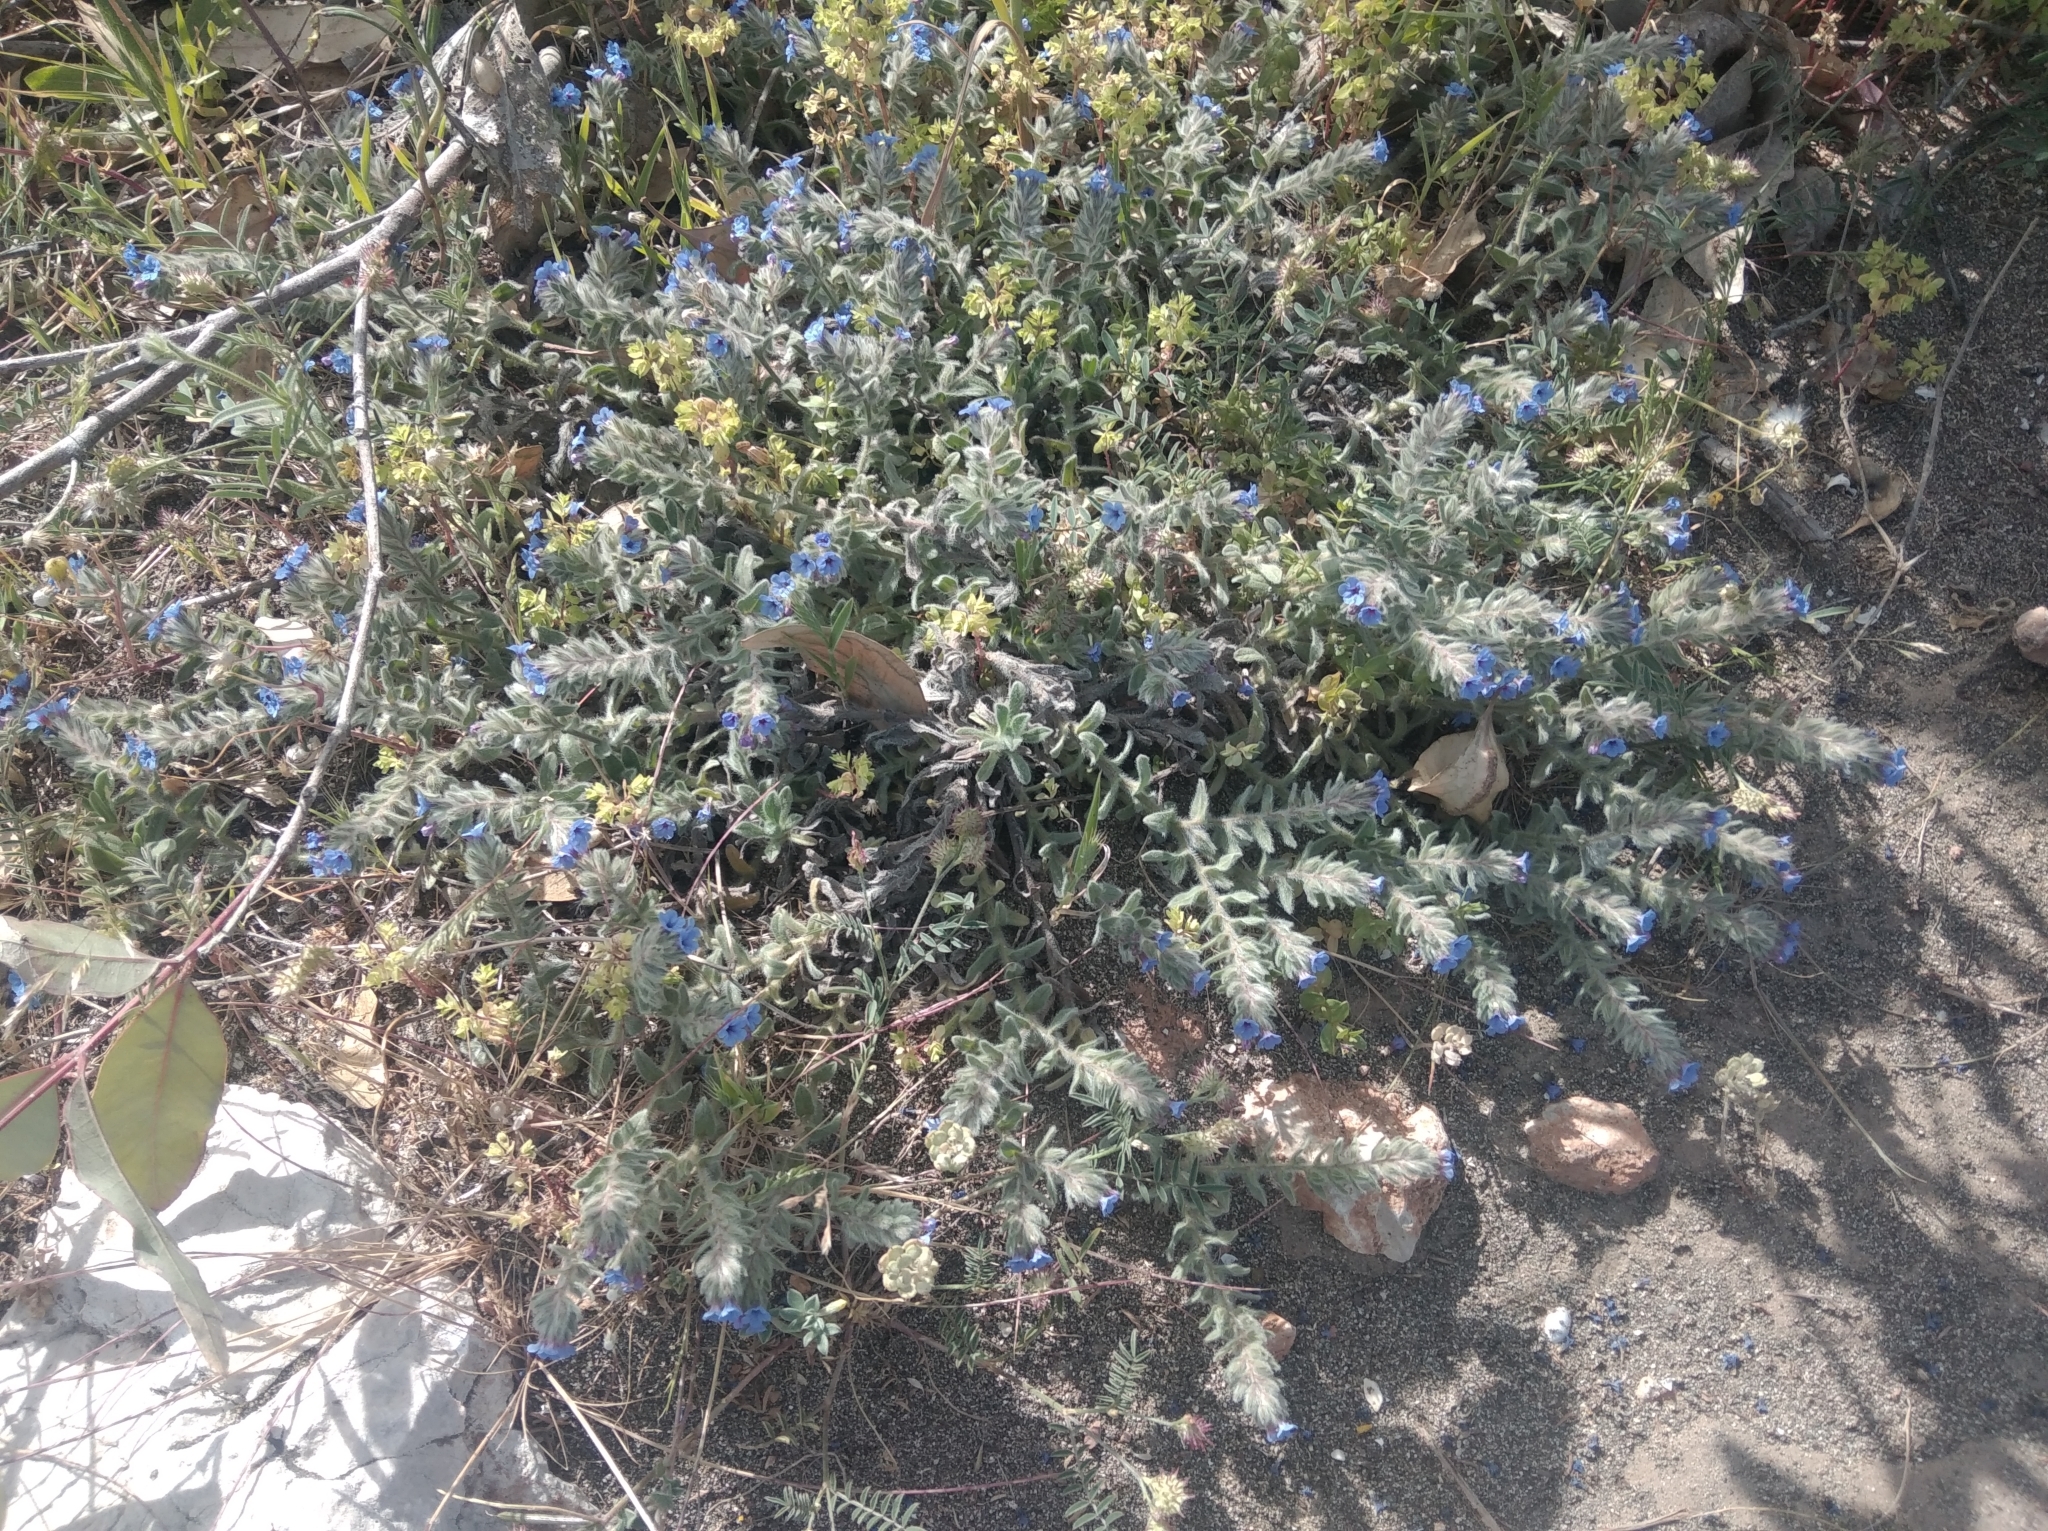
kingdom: Plantae
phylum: Tracheophyta
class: Magnoliopsida
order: Boraginales
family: Boraginaceae
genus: Alkanna
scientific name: Alkanna tinctoria
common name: Dyer's-alkanet
